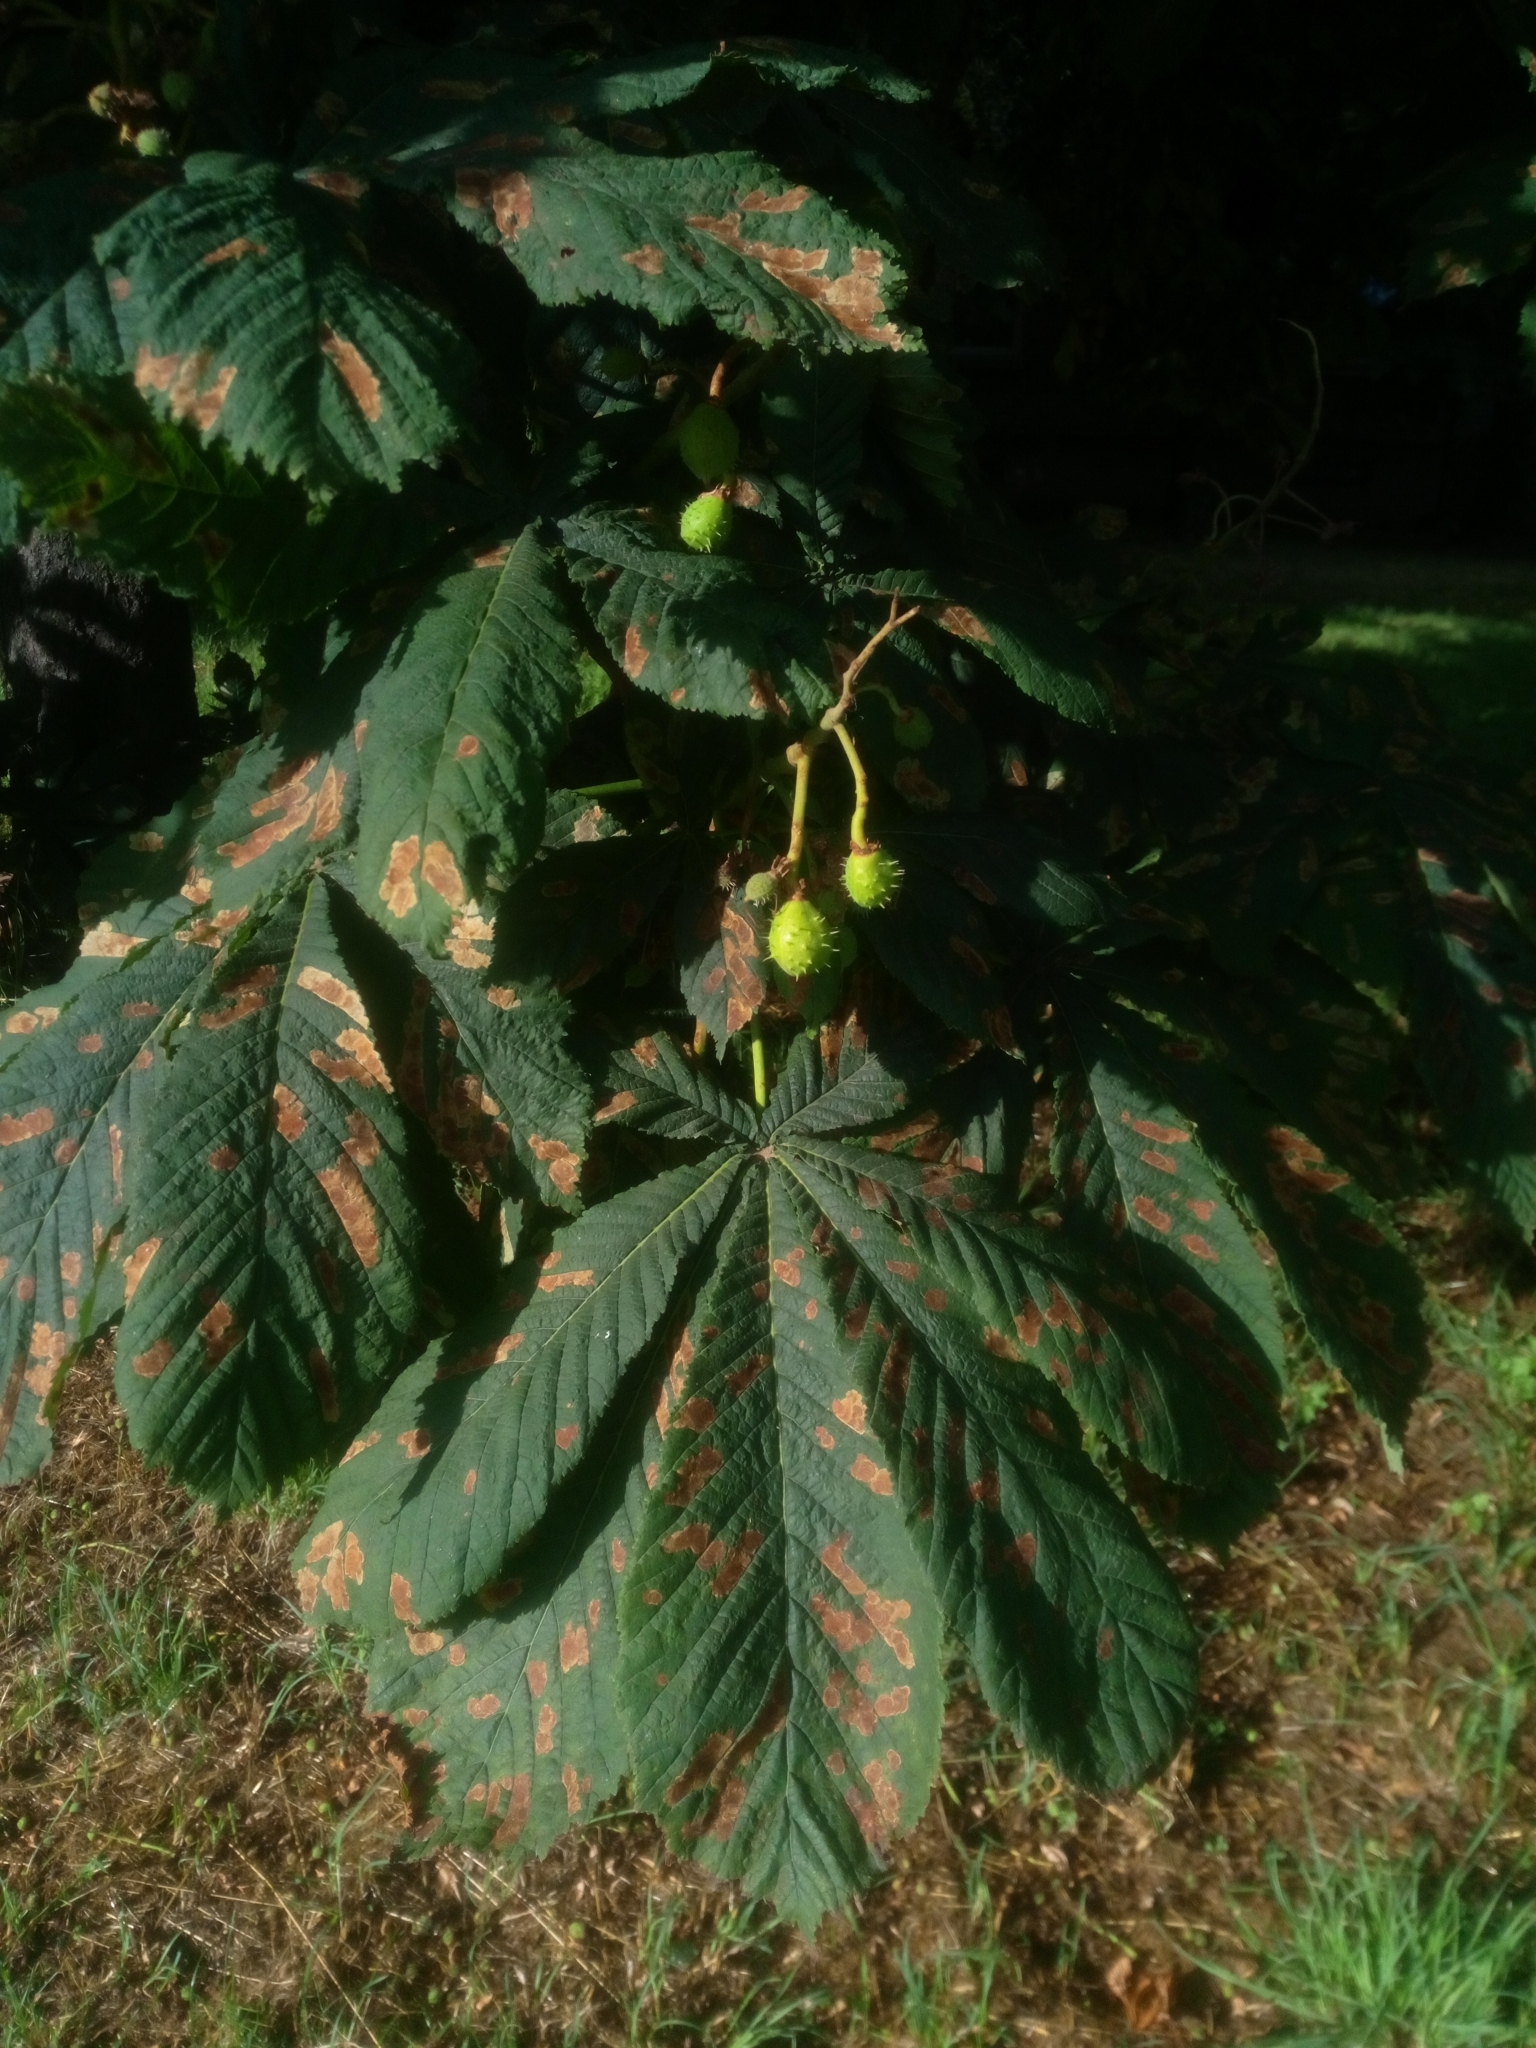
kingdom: Animalia
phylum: Arthropoda
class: Insecta
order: Lepidoptera
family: Gracillariidae
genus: Cameraria
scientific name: Cameraria ohridella
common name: Horse-chestnut leaf-miner
